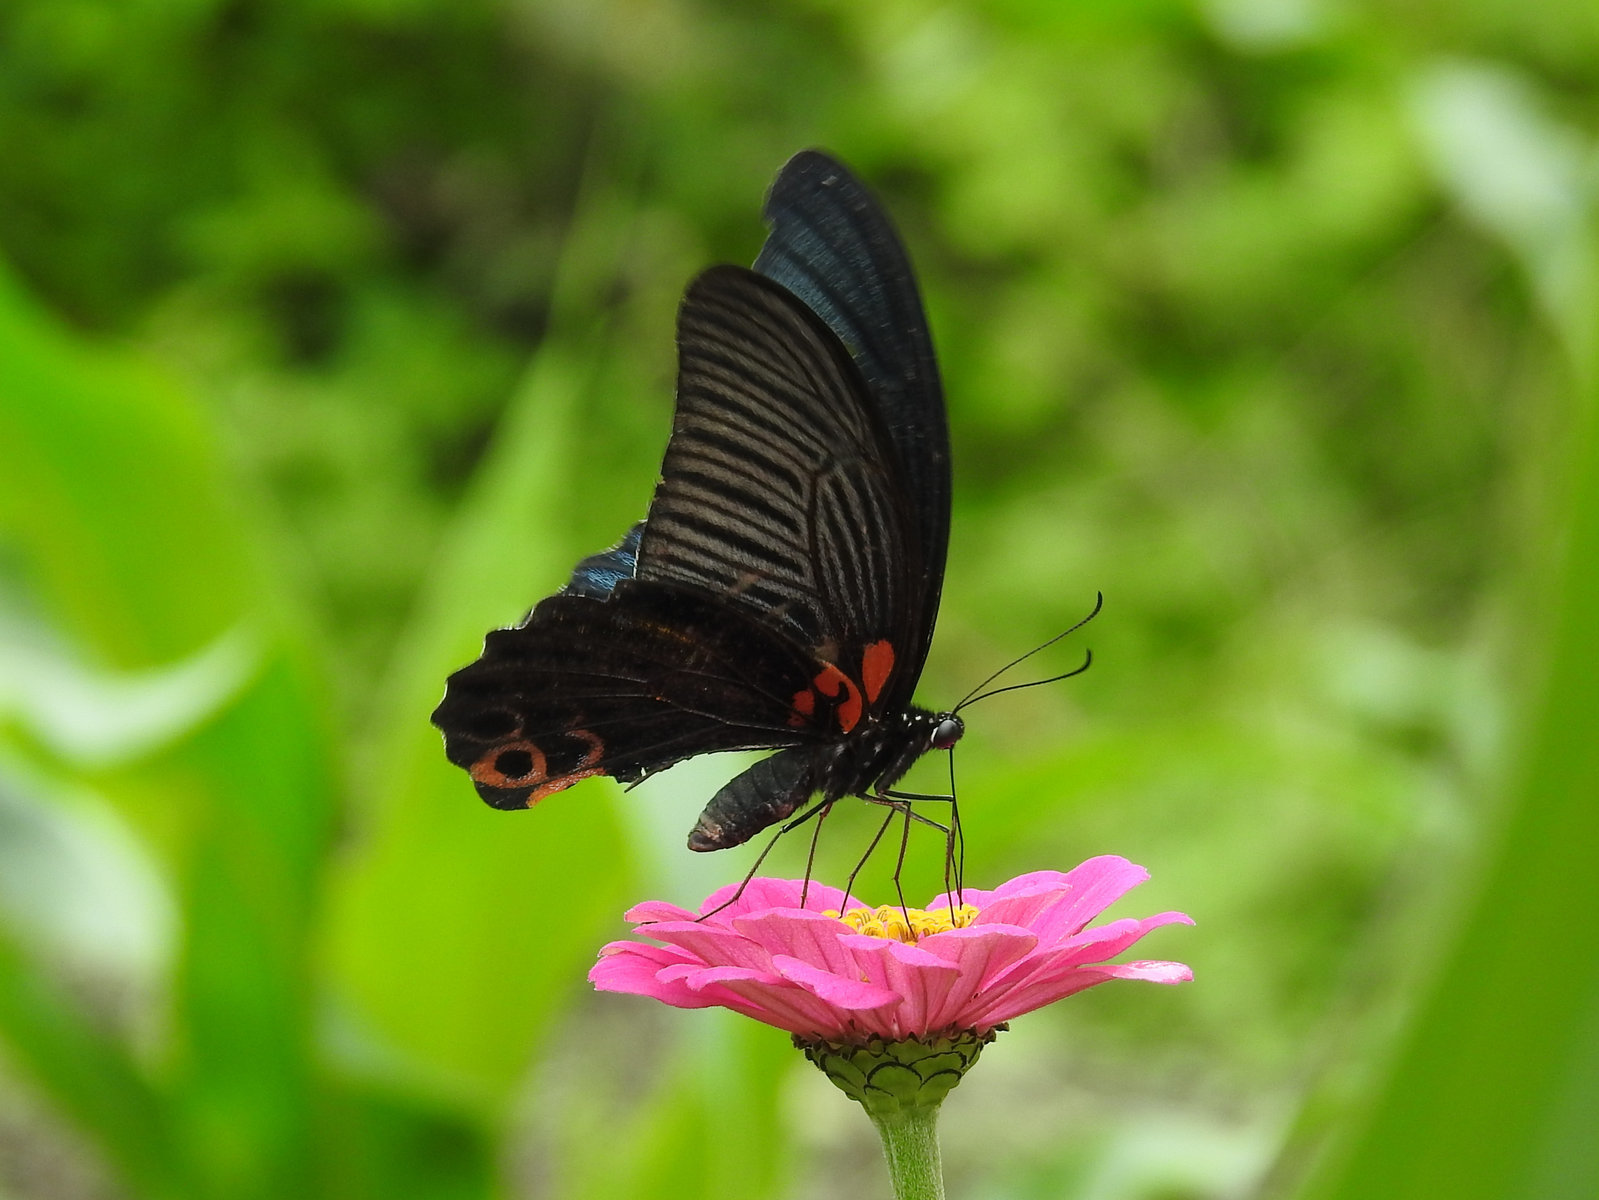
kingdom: Animalia
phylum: Arthropoda
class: Insecta
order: Lepidoptera
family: Papilionidae
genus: Papilio
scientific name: Papilio protenor
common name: Spangle
